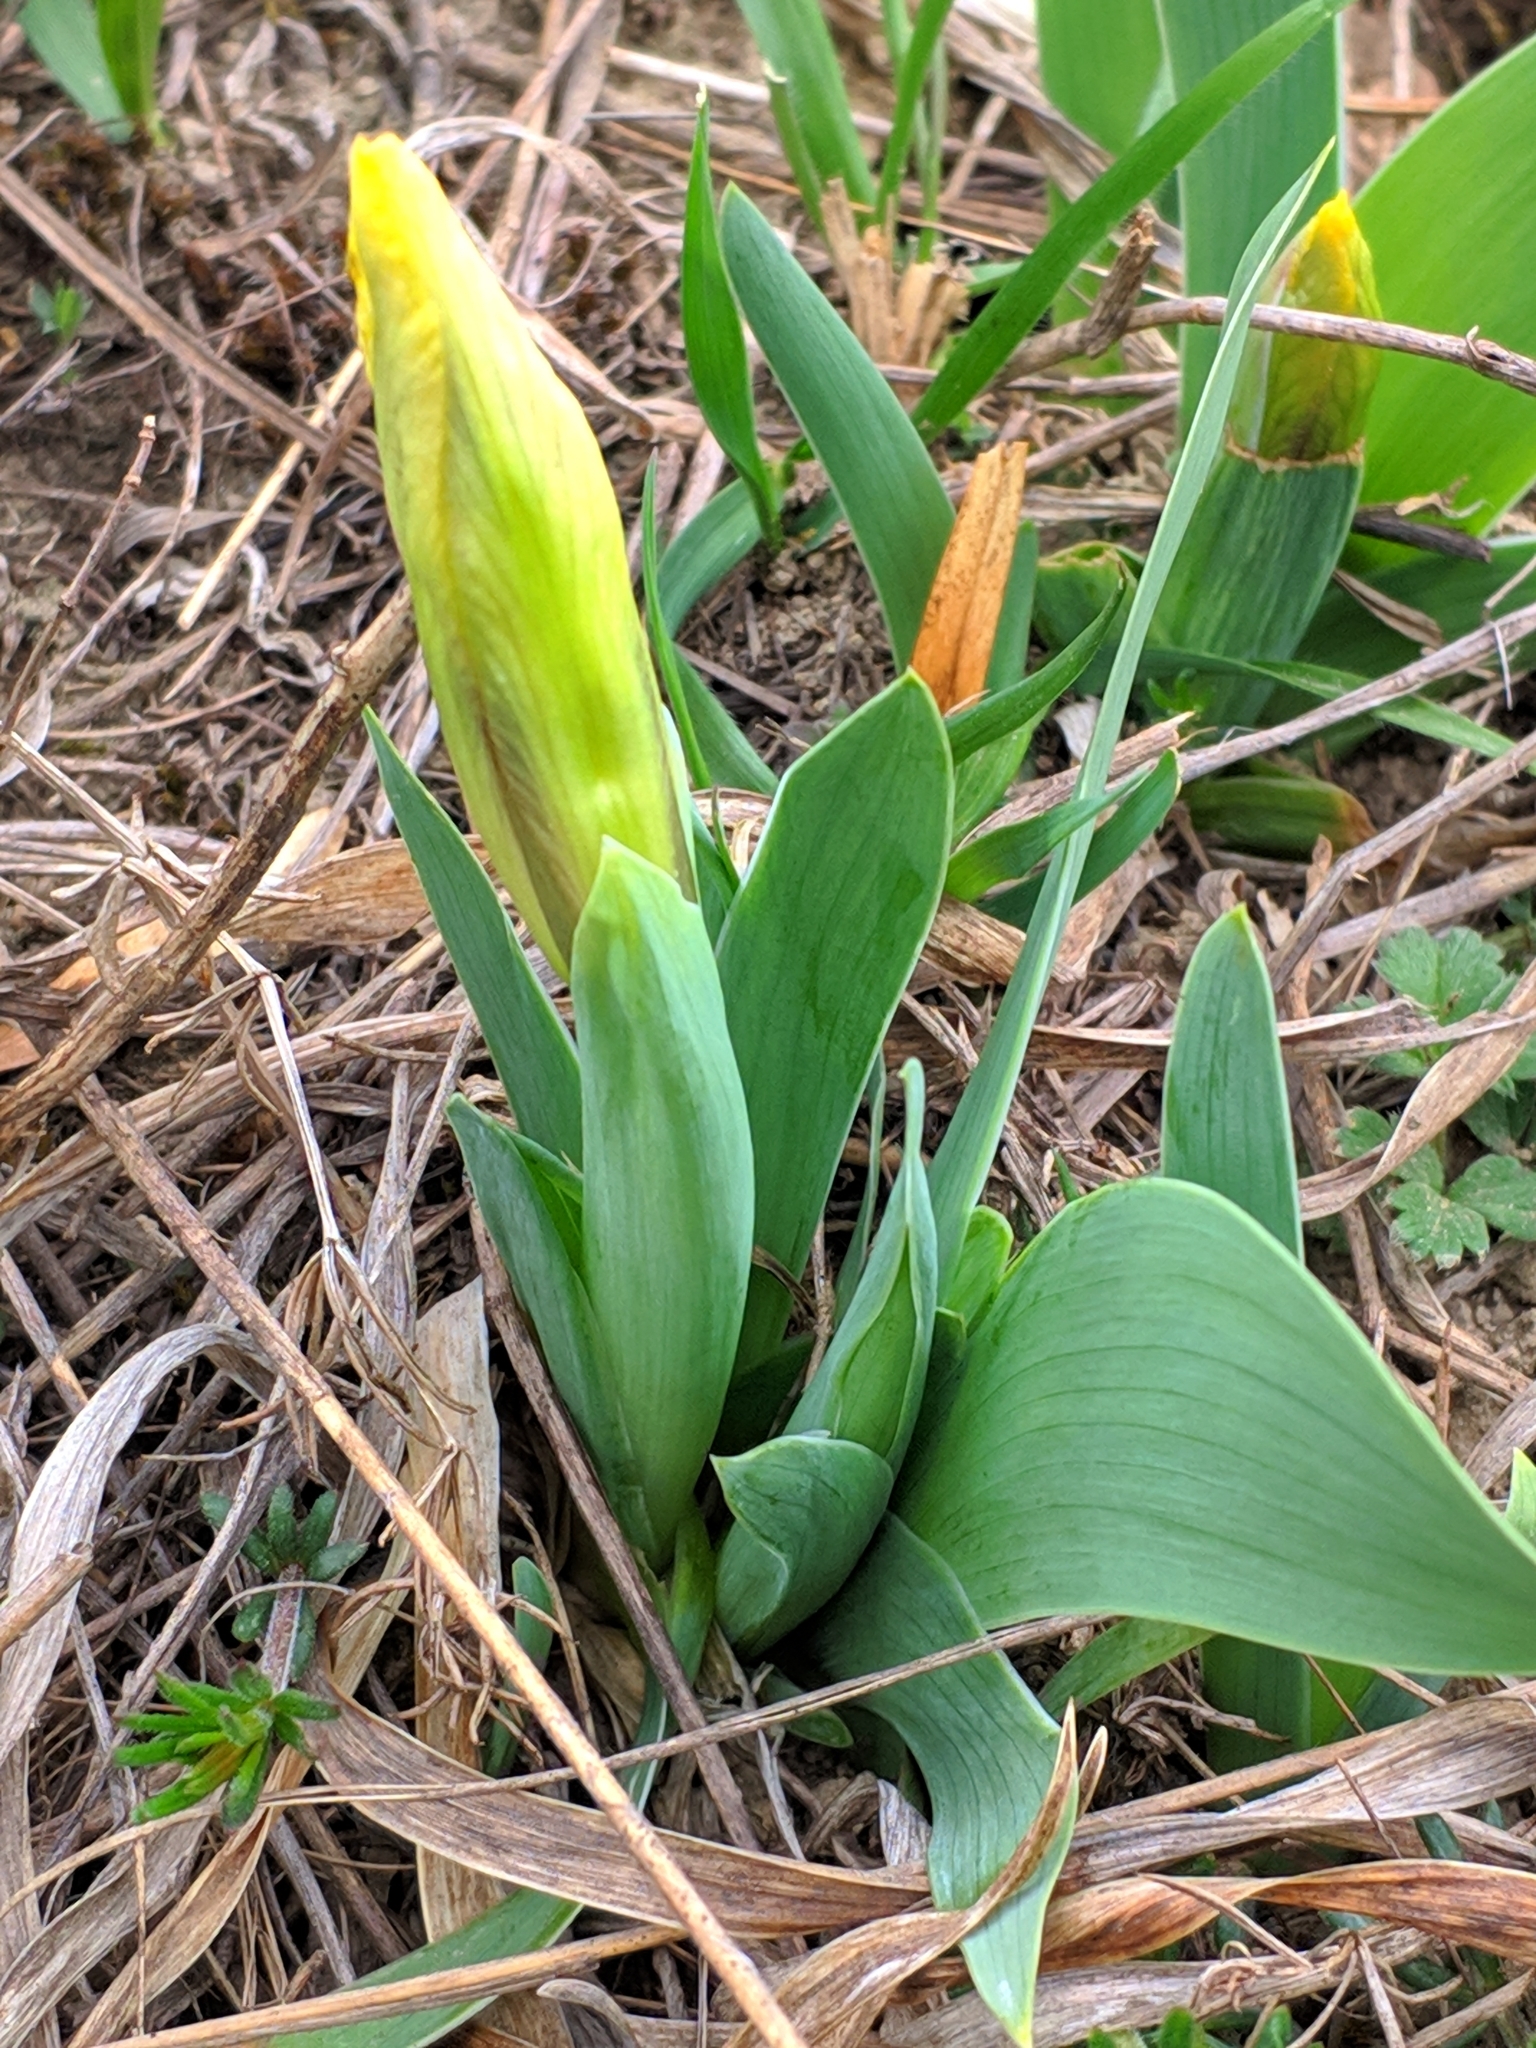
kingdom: Plantae
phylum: Tracheophyta
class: Liliopsida
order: Asparagales
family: Iridaceae
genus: Iris
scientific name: Iris pumila
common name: Dwarf iris
